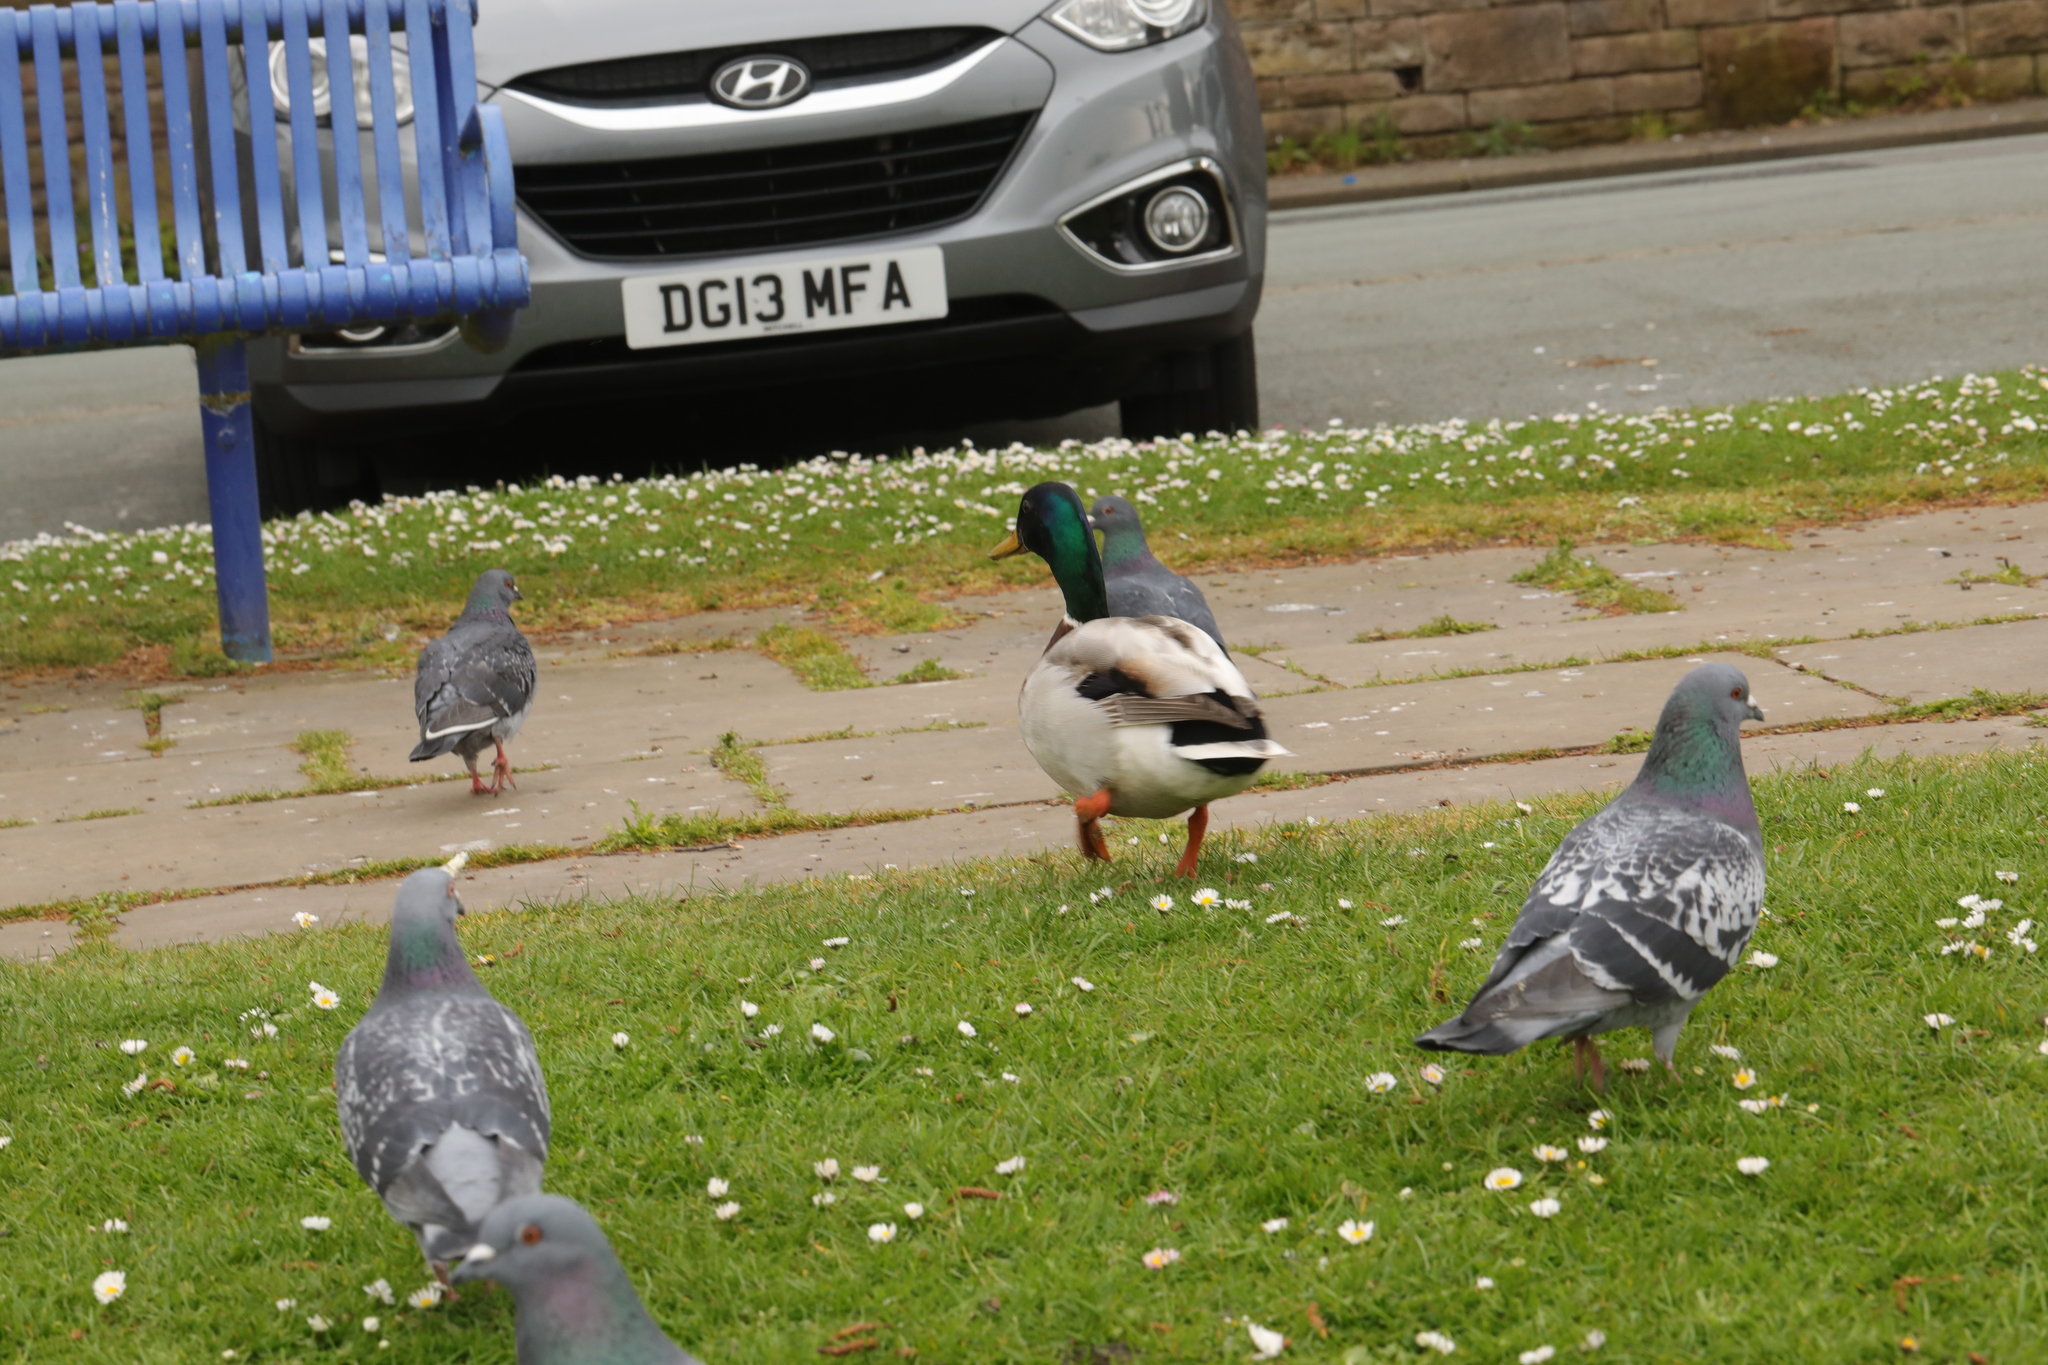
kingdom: Animalia
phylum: Chordata
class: Aves
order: Anseriformes
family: Anatidae
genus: Anas
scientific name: Anas platyrhynchos
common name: Mallard
